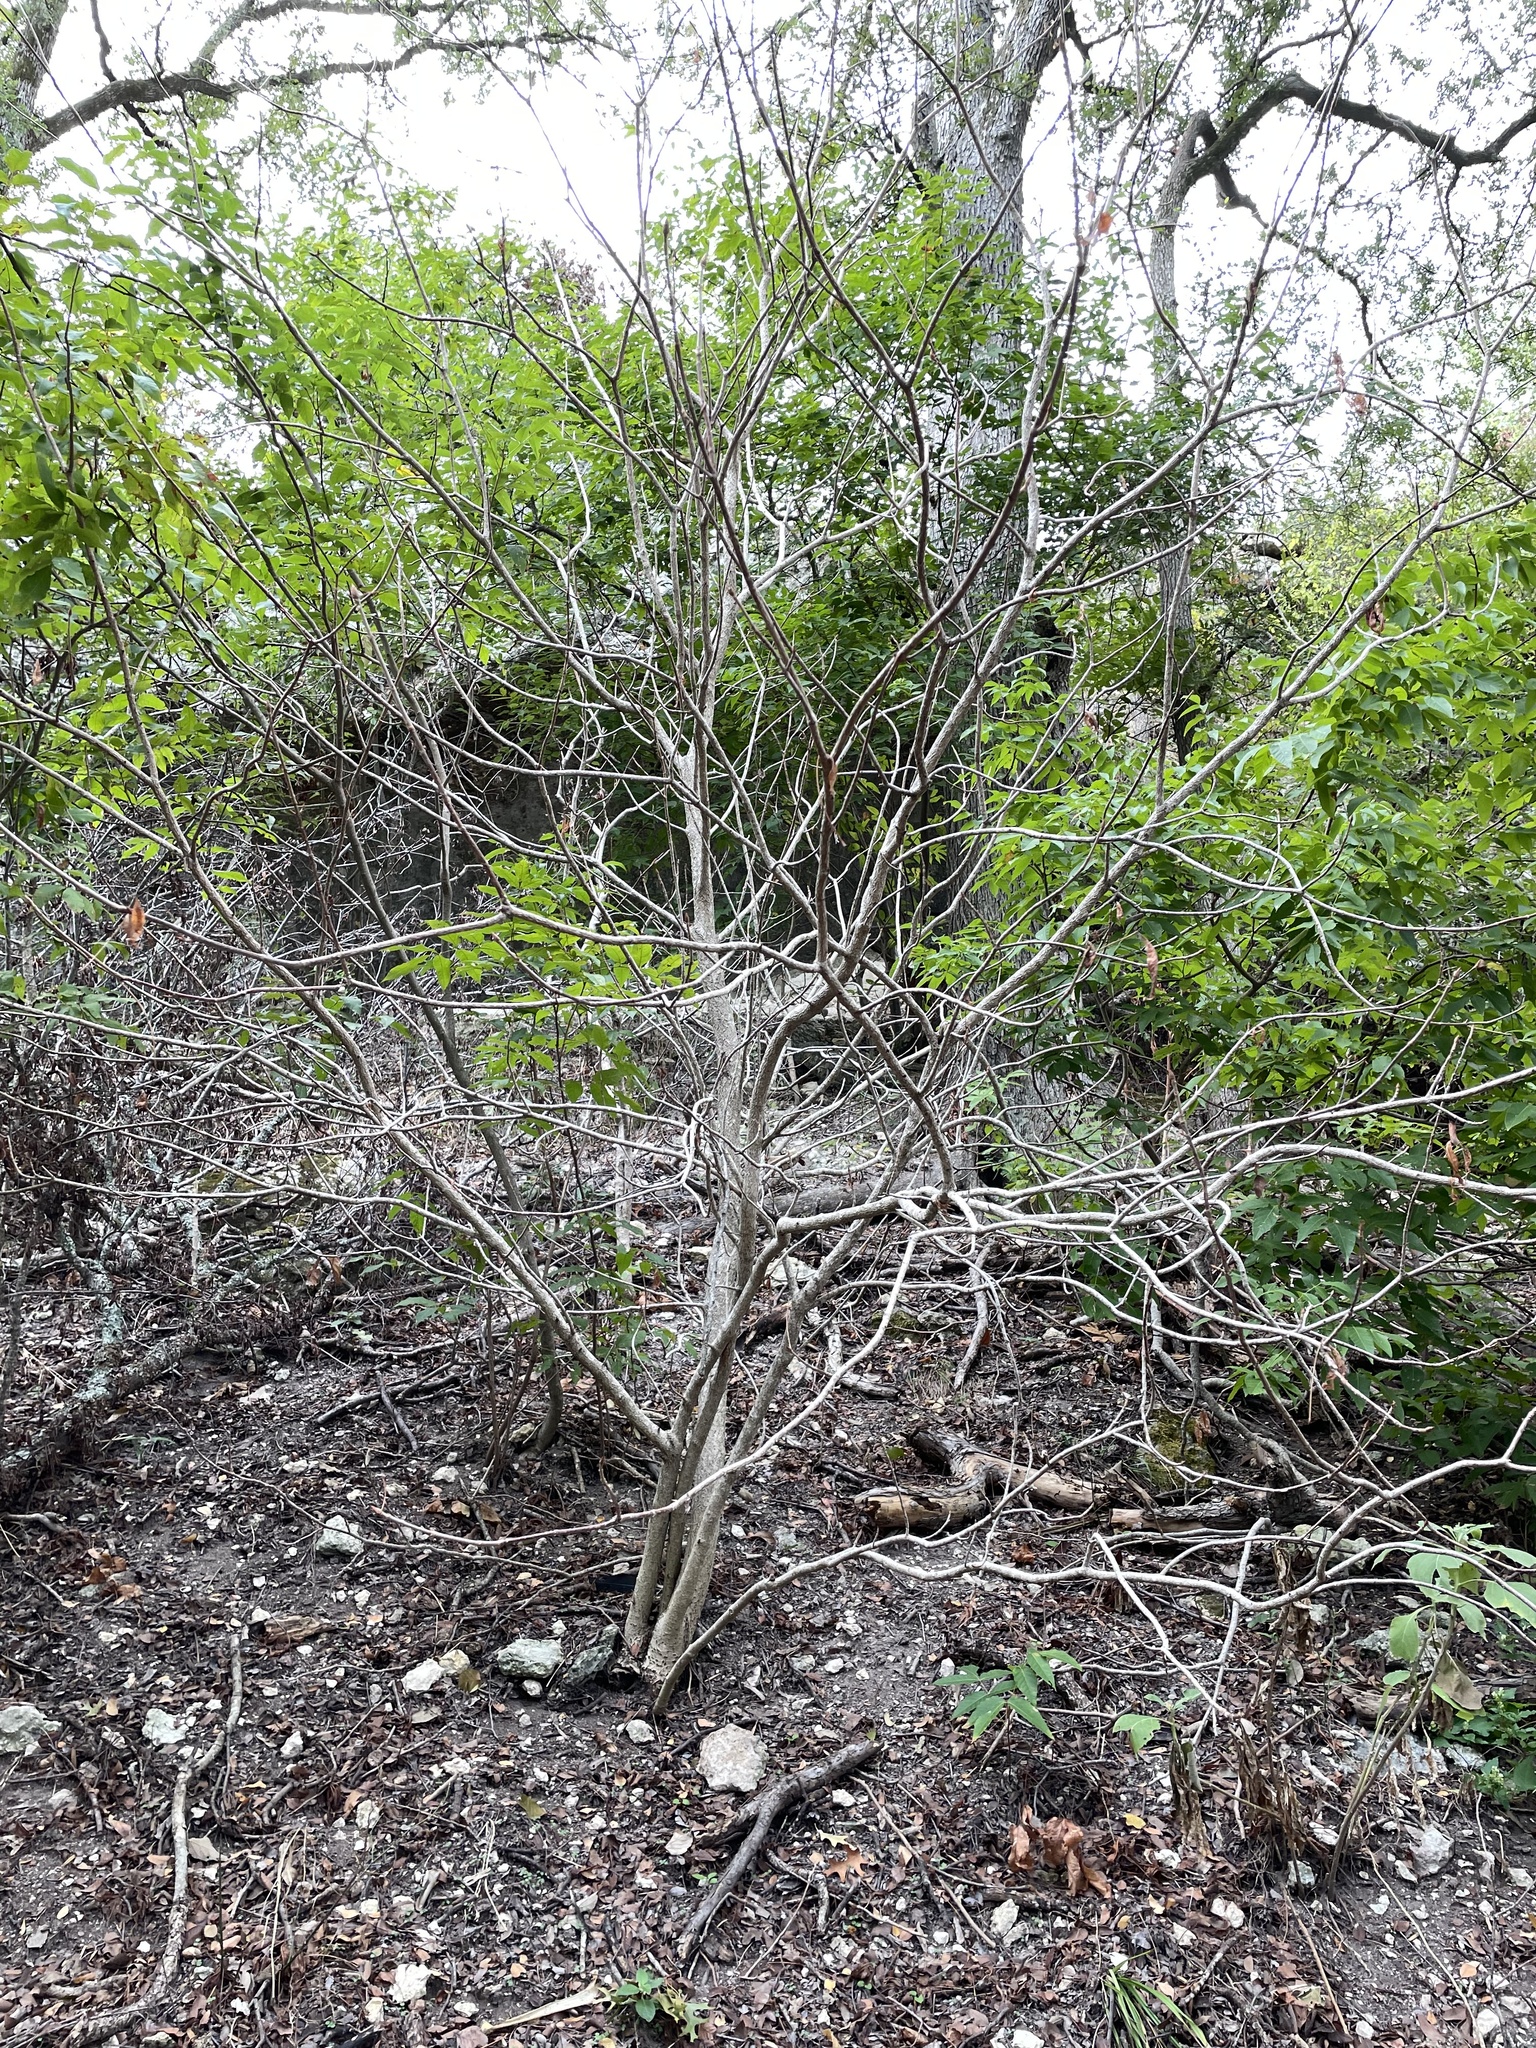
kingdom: Plantae
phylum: Tracheophyta
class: Magnoliopsida
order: Sapindales
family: Sapindaceae
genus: Aesculus
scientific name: Aesculus glabra
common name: Ohio buckeye
